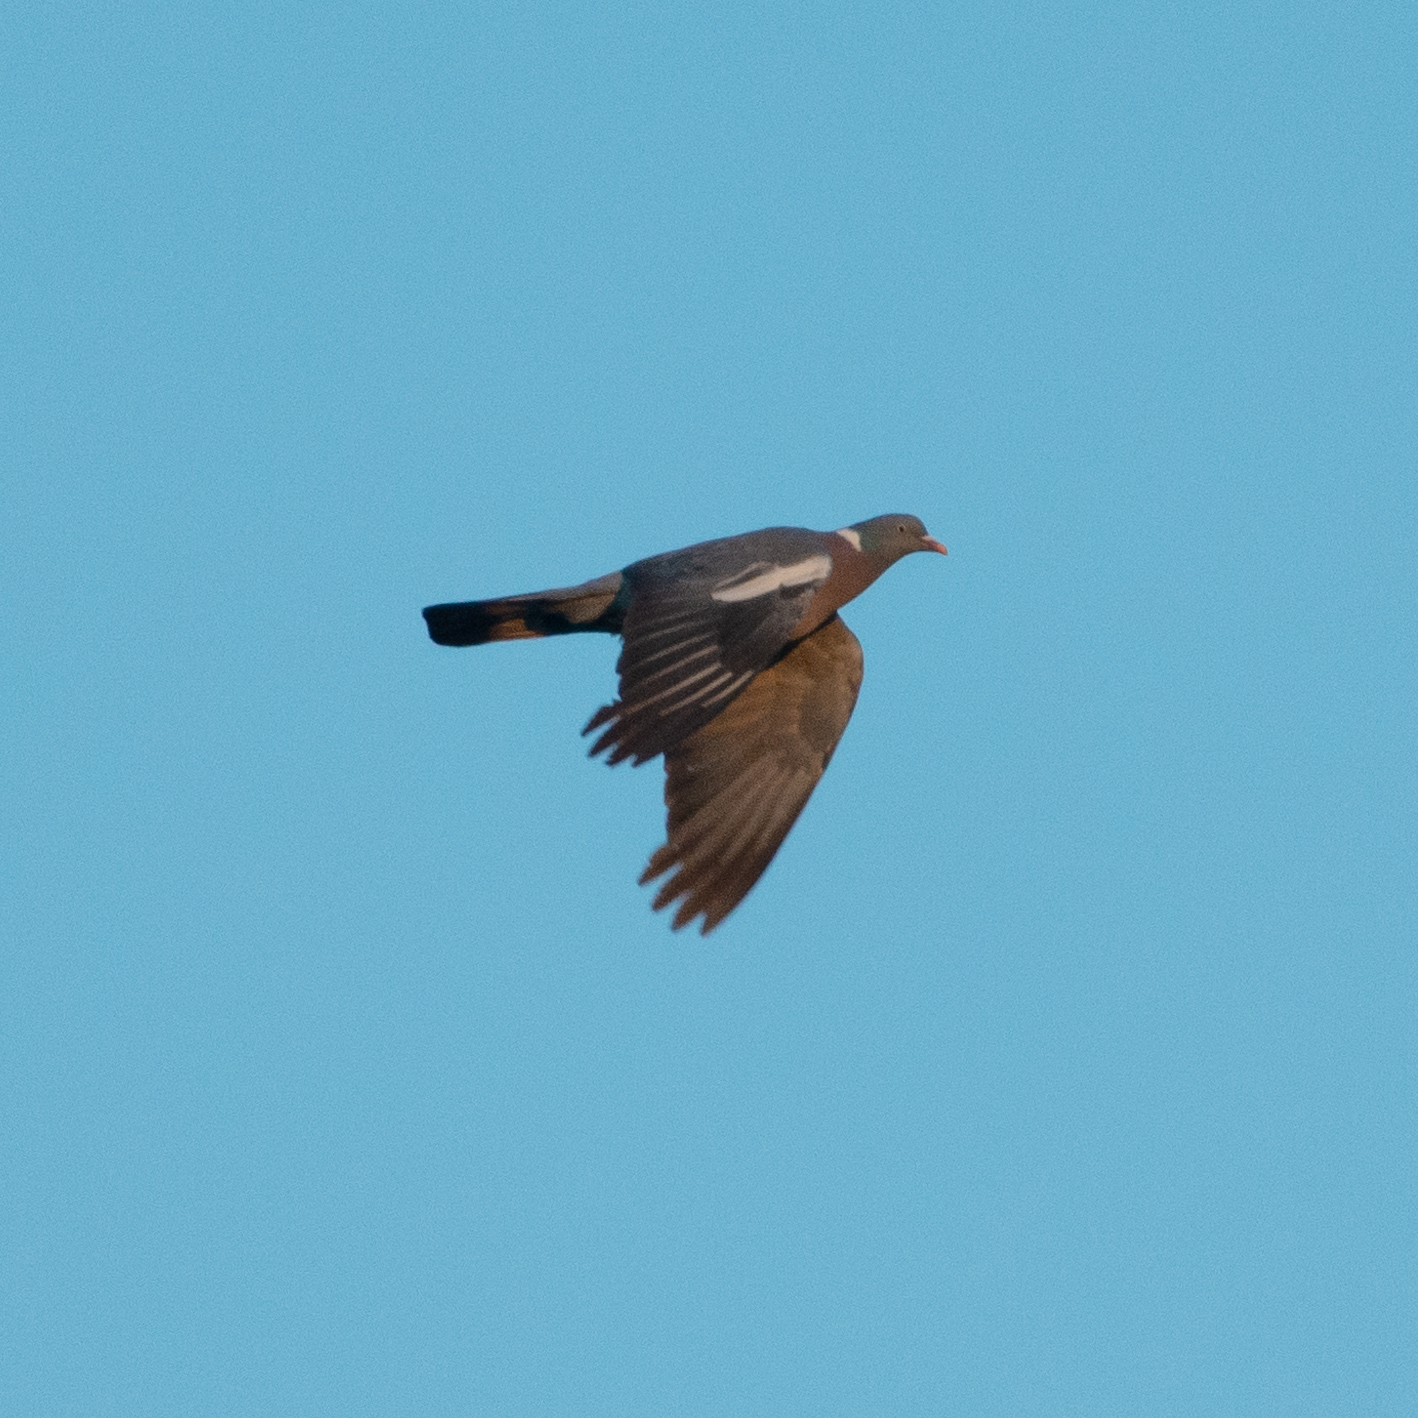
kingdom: Animalia
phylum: Chordata
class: Aves
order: Columbiformes
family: Columbidae
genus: Columba
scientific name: Columba palumbus
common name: Common wood pigeon
